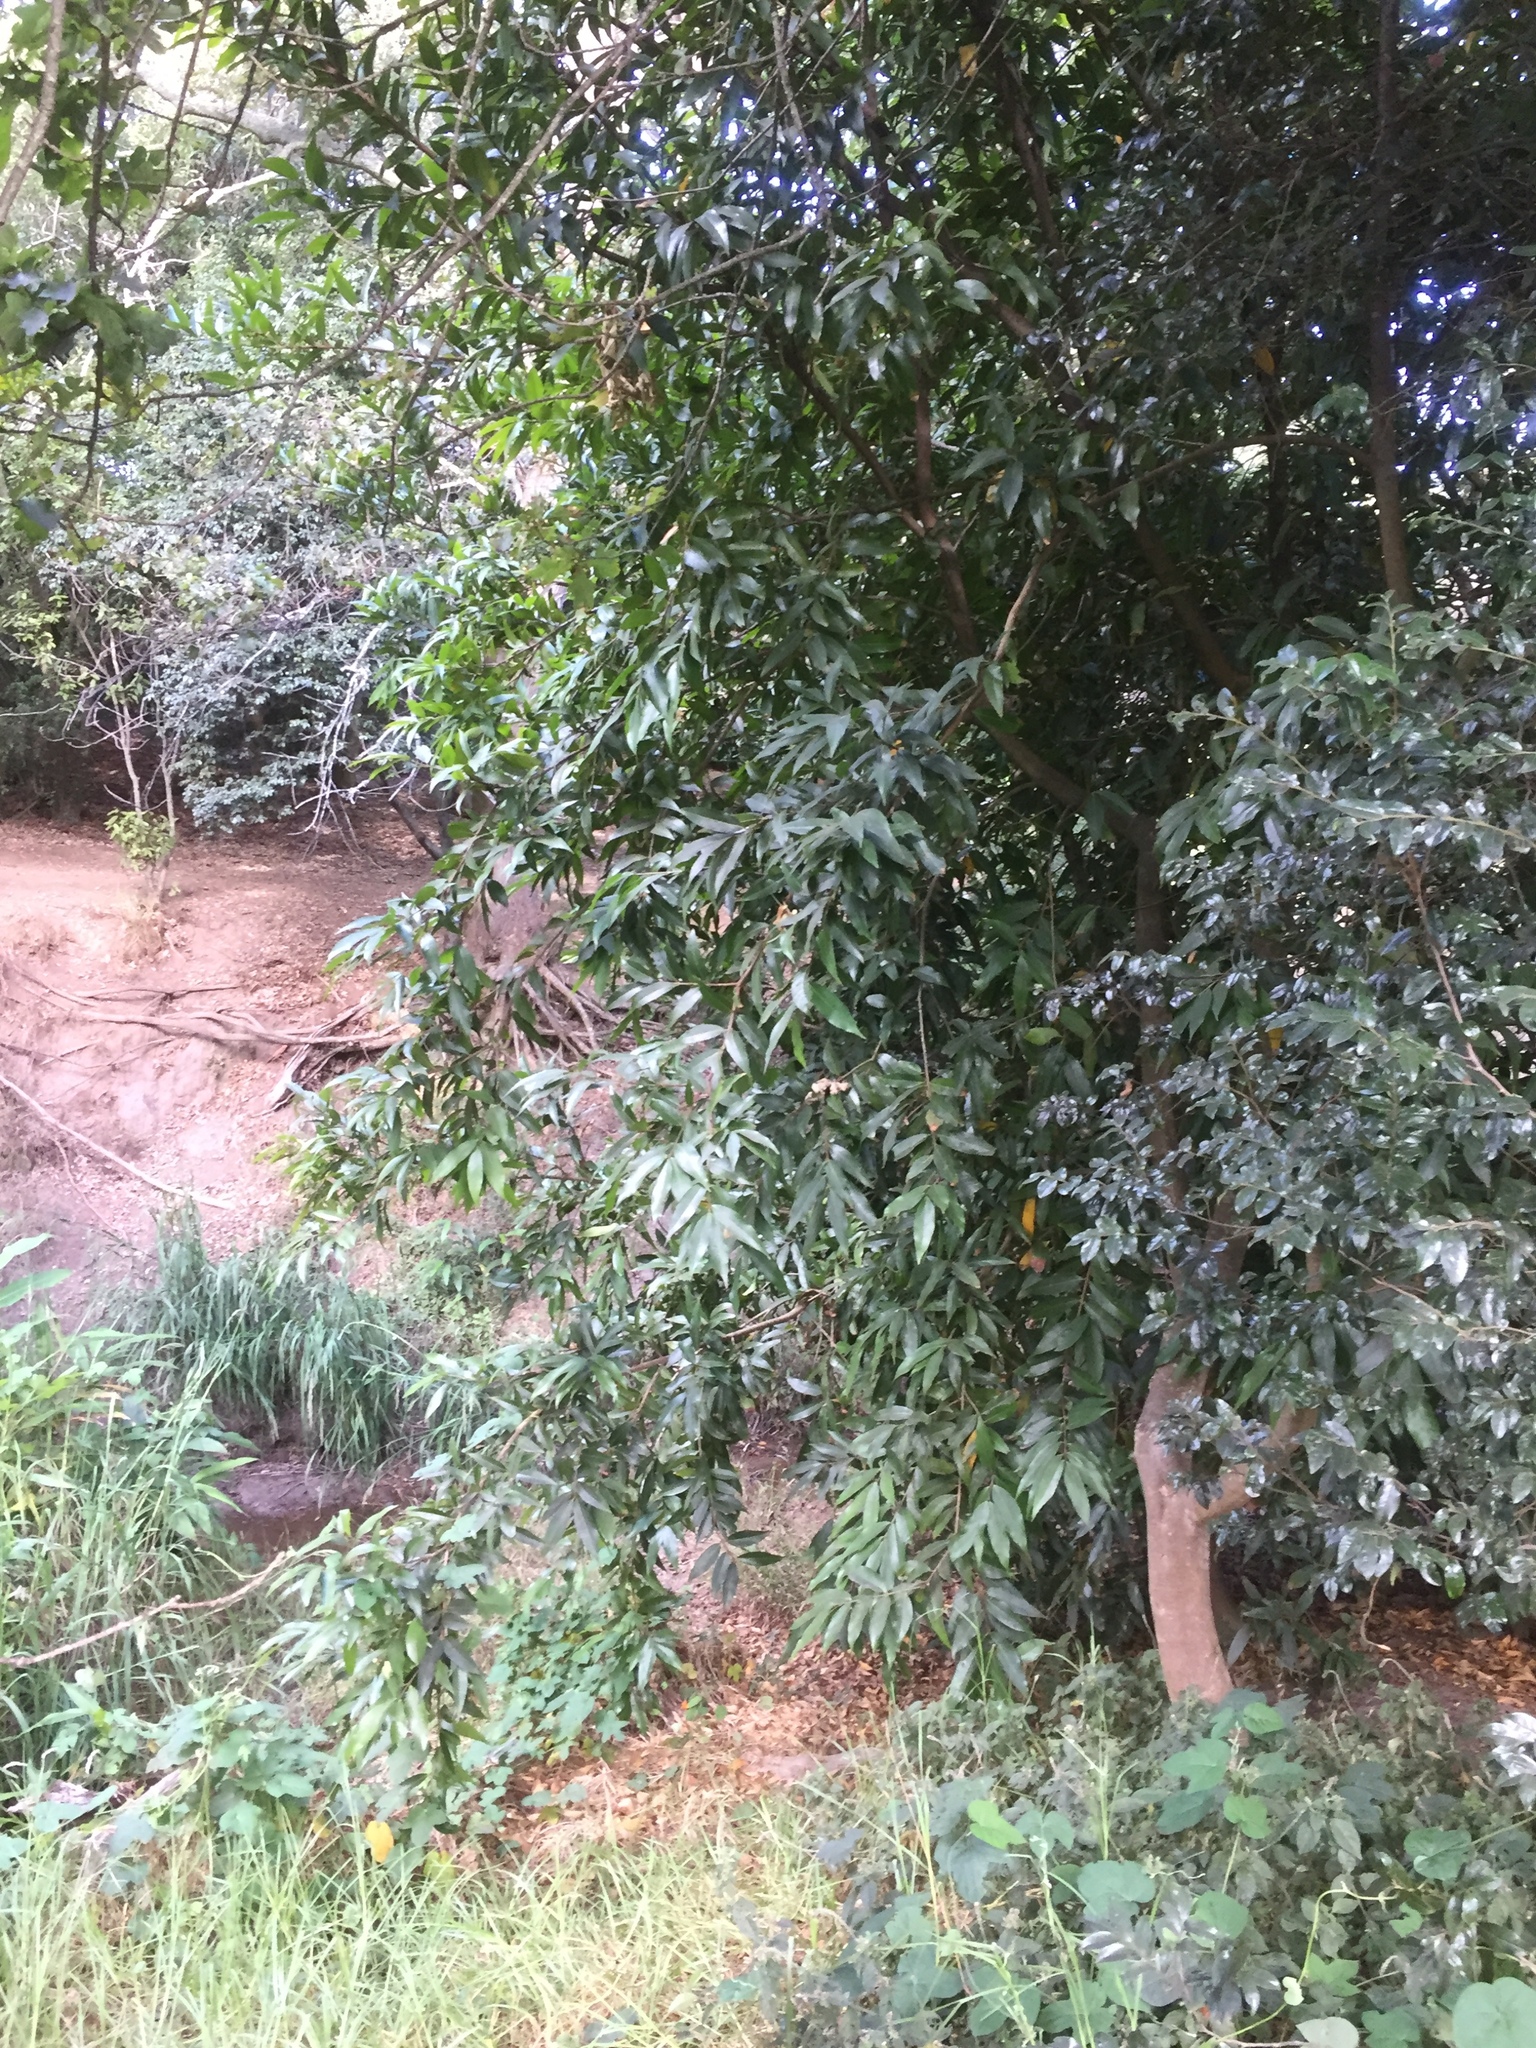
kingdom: Plantae
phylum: Tracheophyta
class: Magnoliopsida
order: Myrtales
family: Myrtaceae
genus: Syzygium
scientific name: Syzygium jambos
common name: Malabar plum
